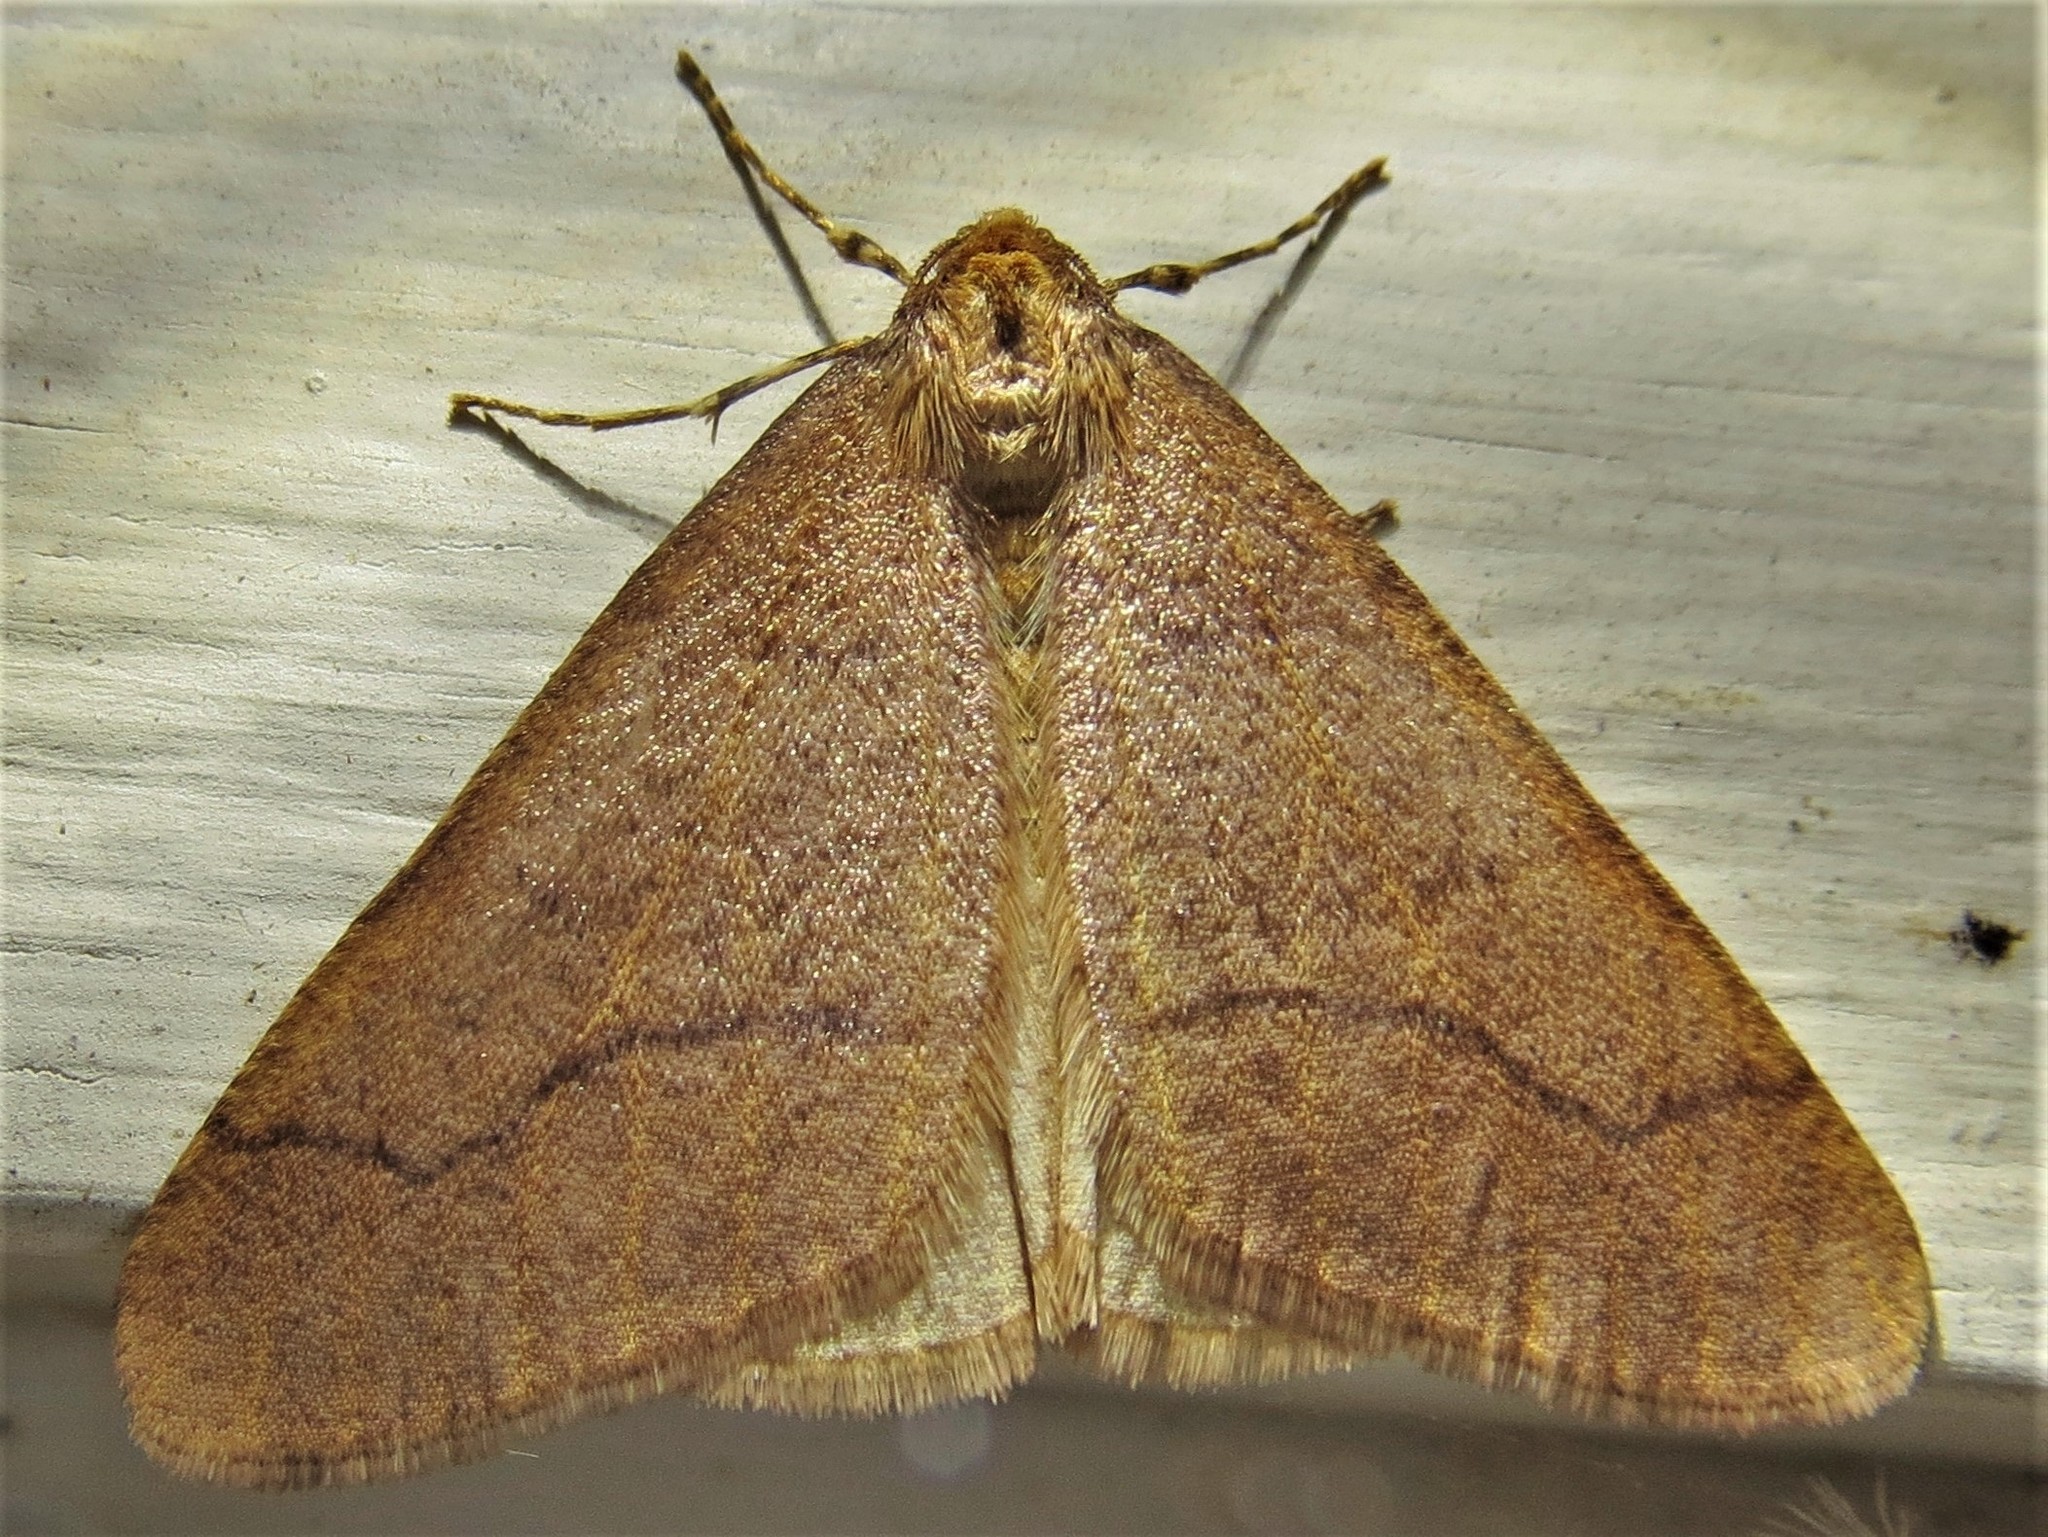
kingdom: Animalia
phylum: Arthropoda
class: Insecta
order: Lepidoptera
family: Geometridae
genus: Erannis
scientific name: Erannis tiliaria
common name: Linden looper
